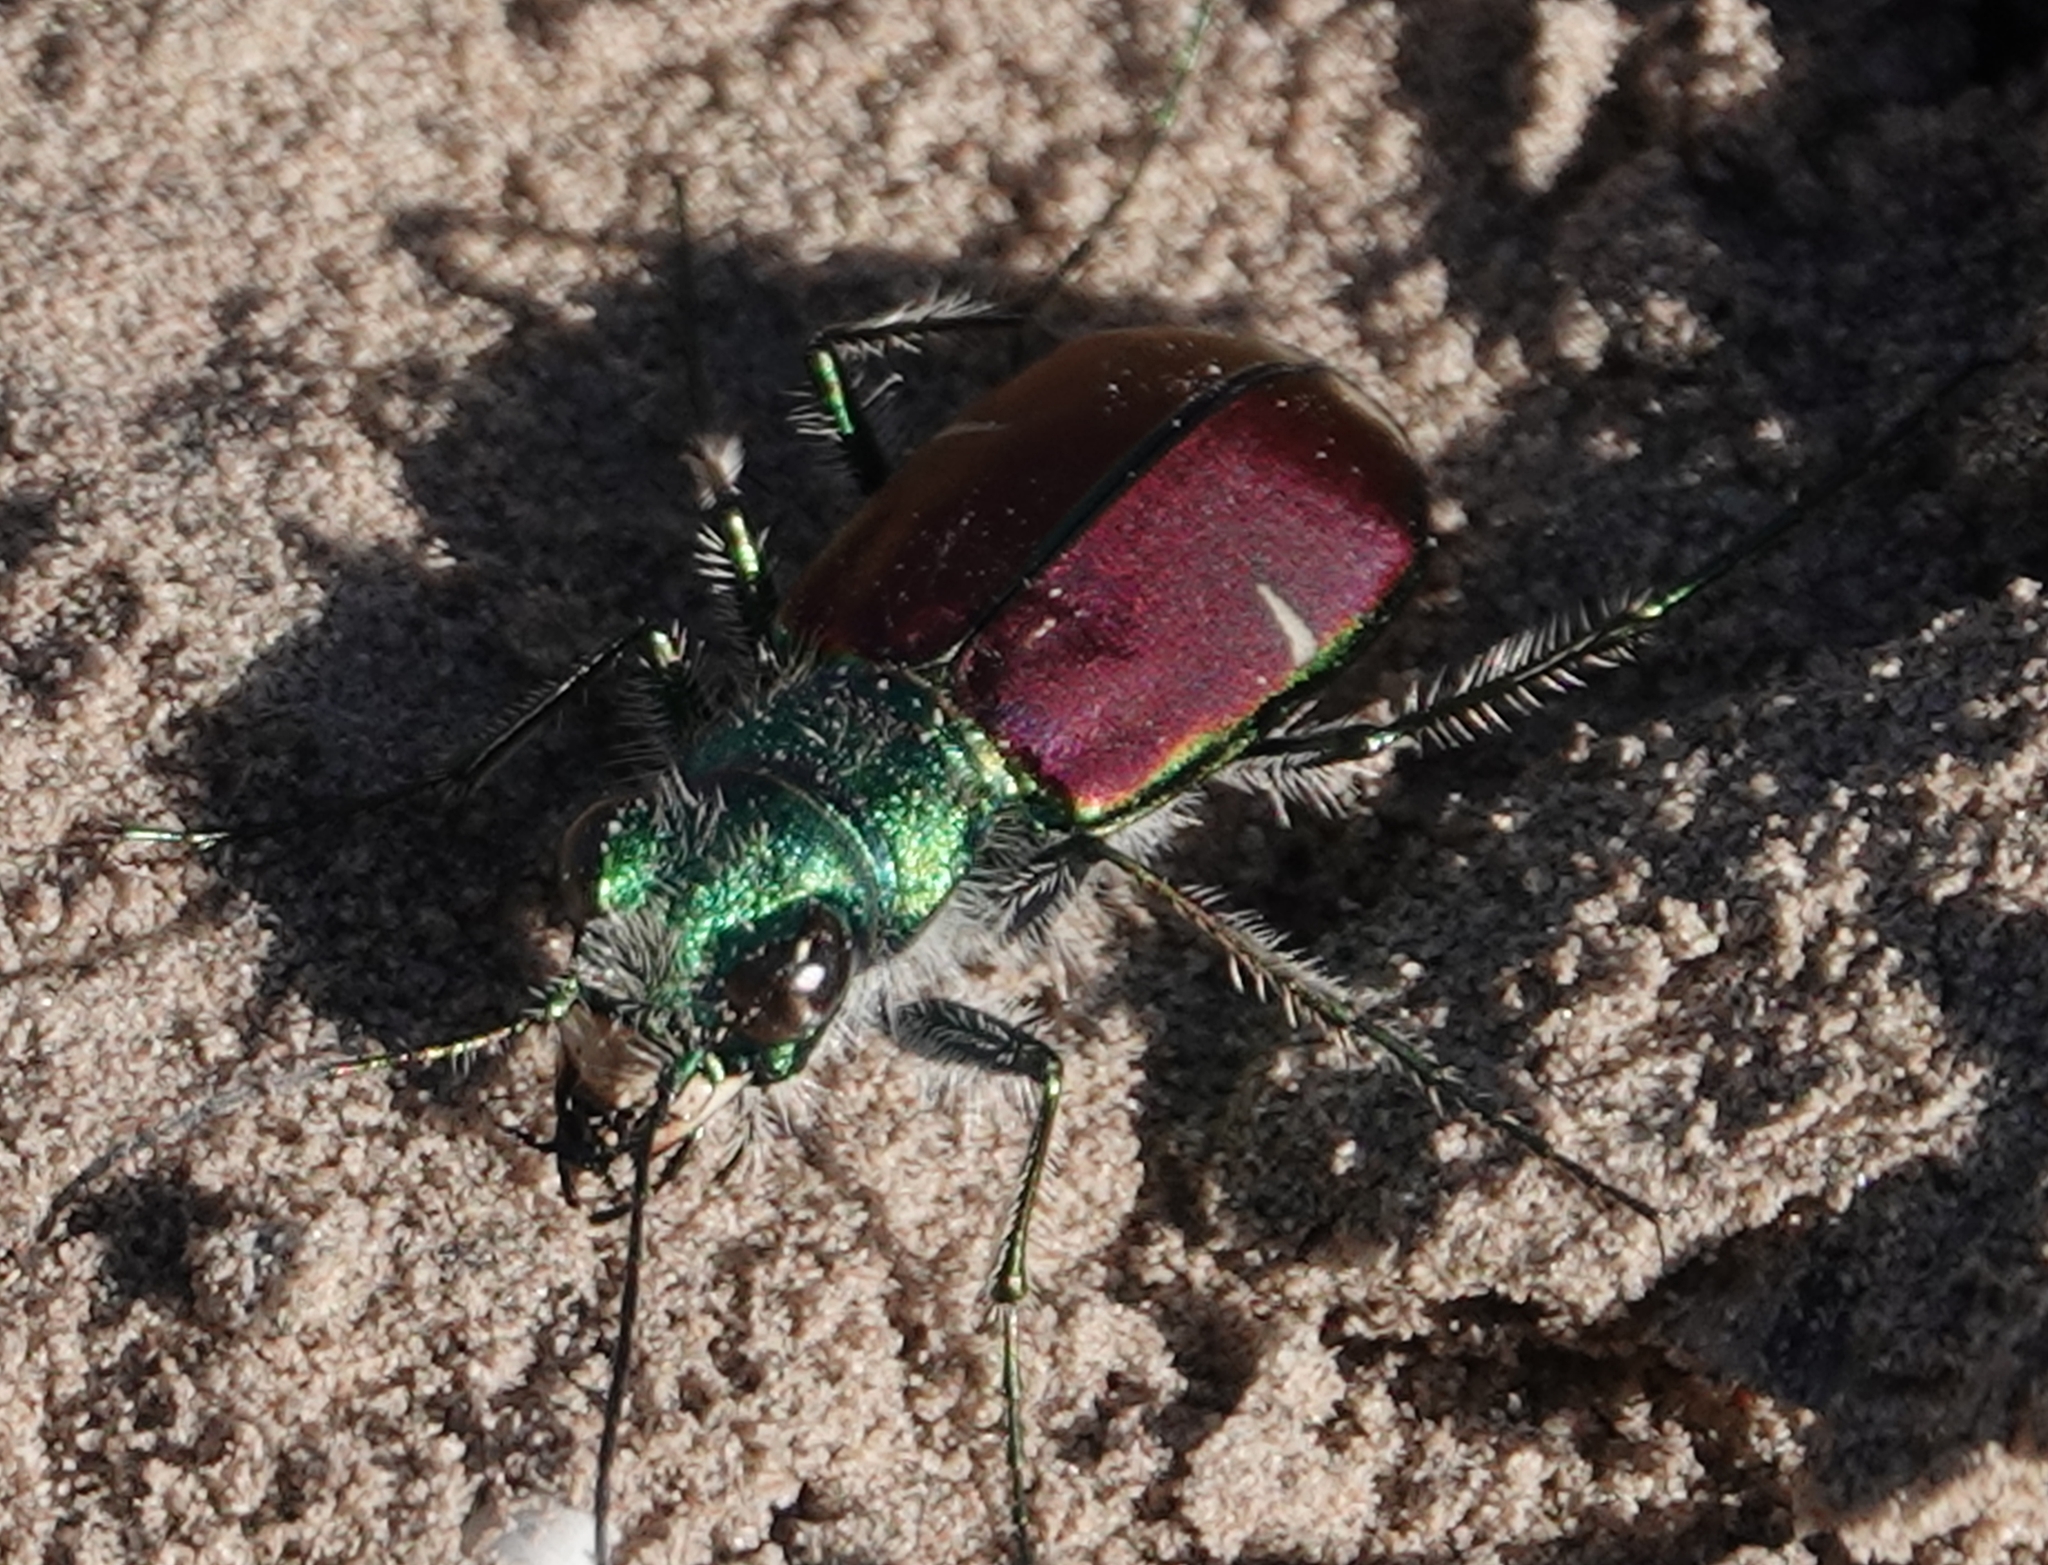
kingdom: Animalia
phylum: Arthropoda
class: Insecta
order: Coleoptera
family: Carabidae
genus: Cicindela
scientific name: Cicindela splendida
